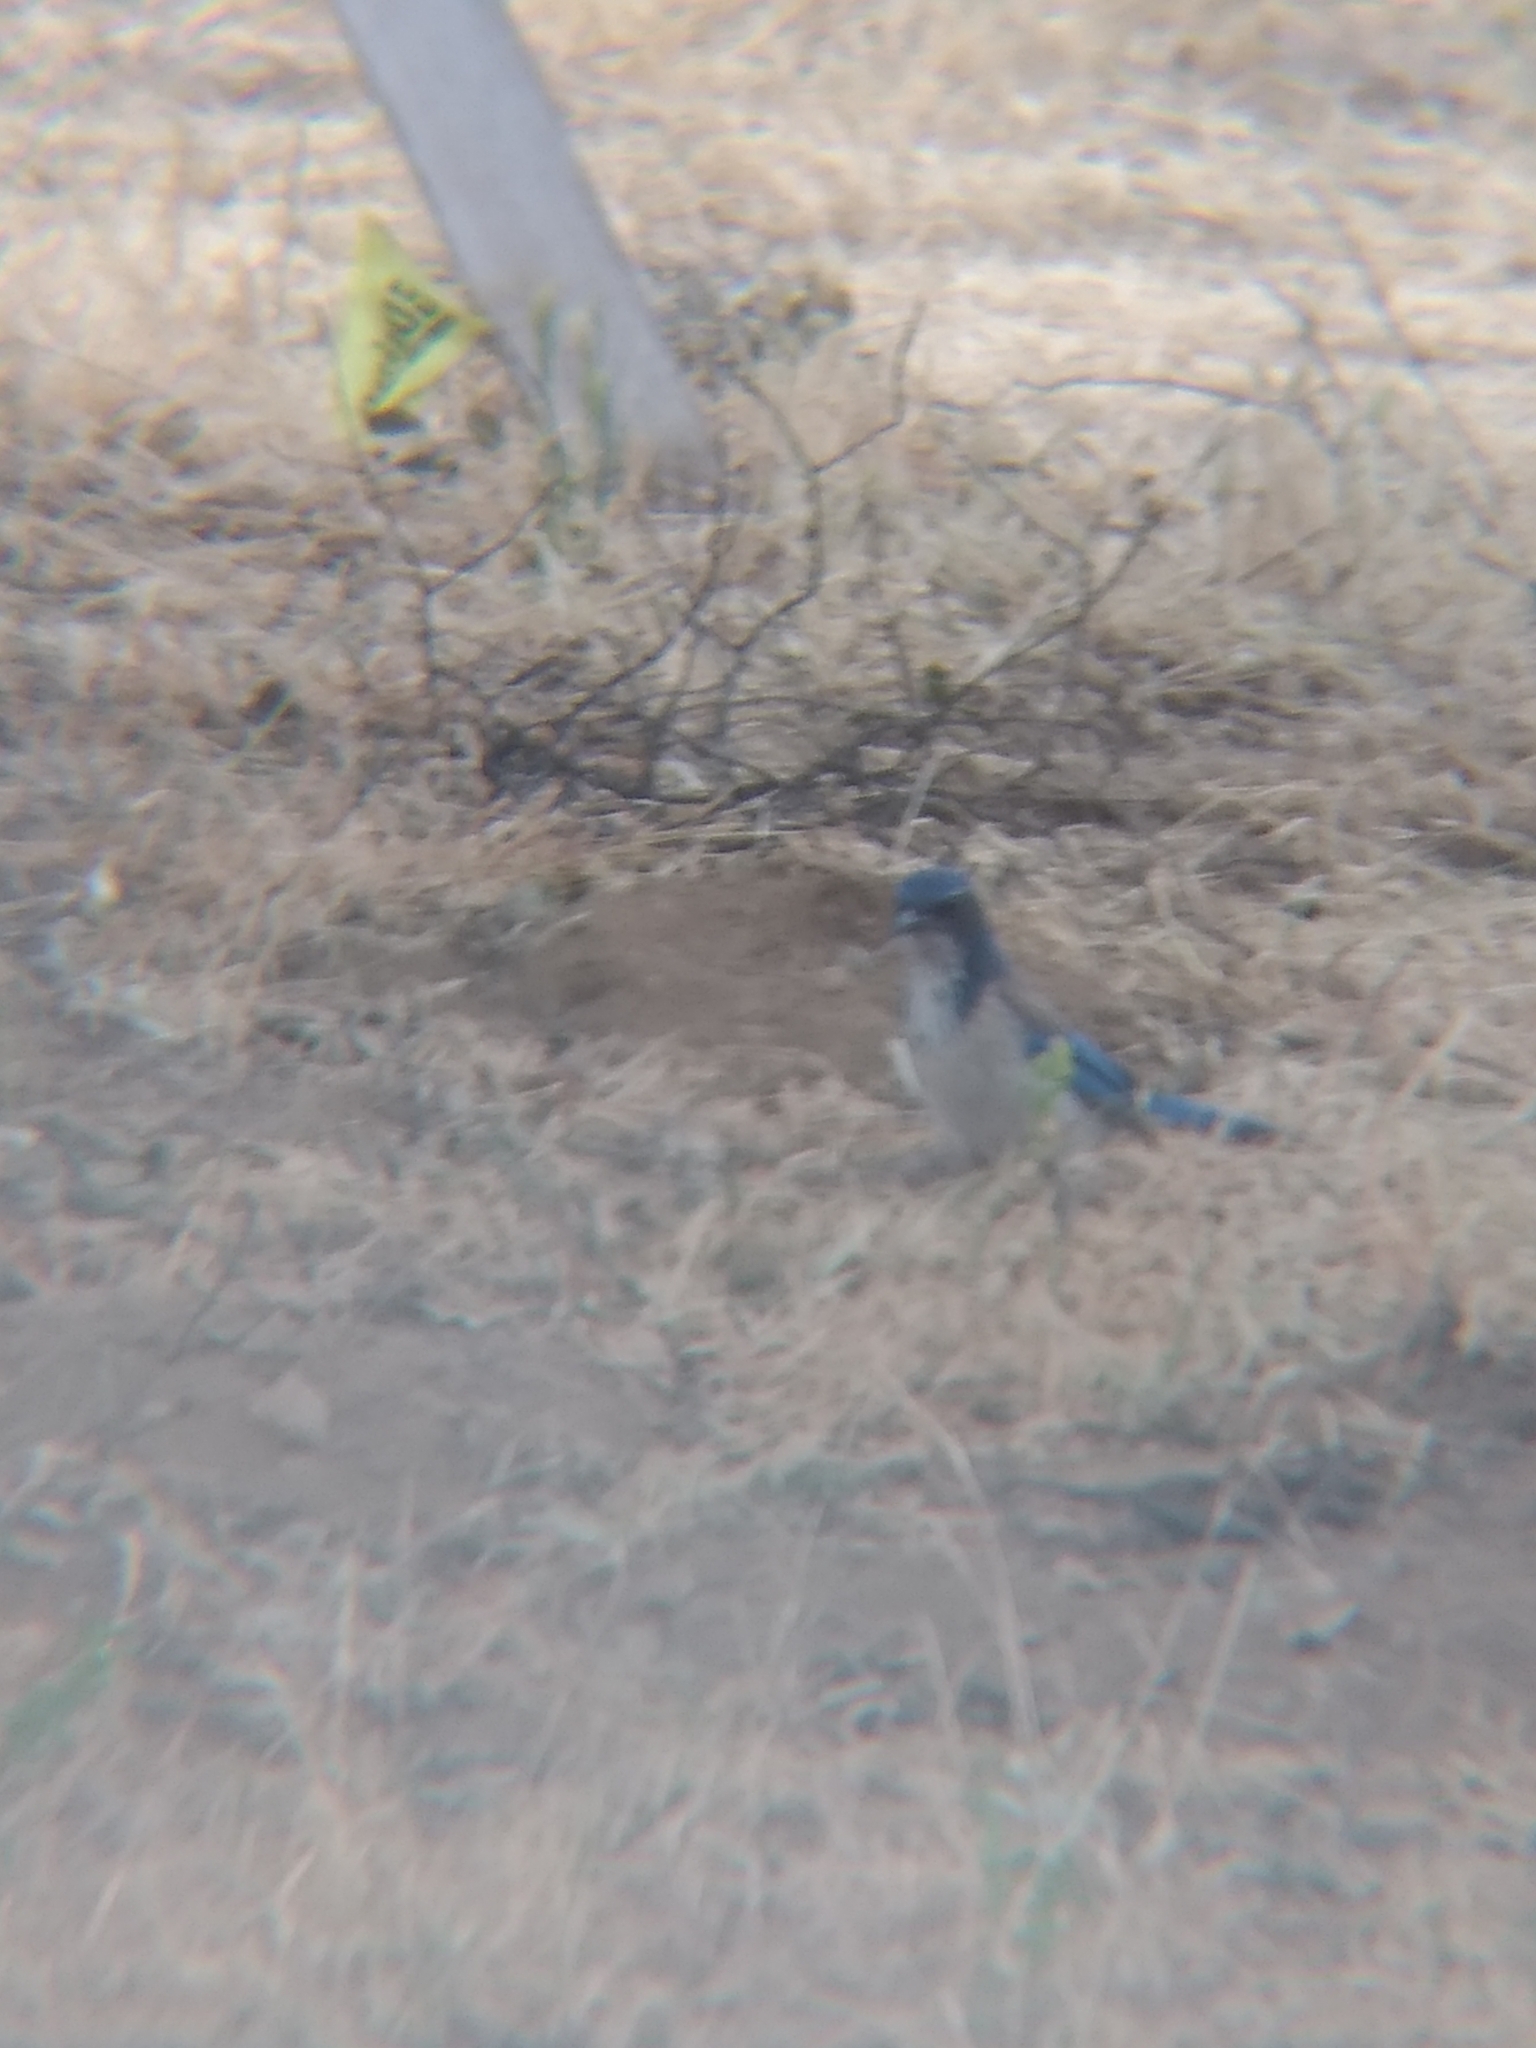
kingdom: Animalia
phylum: Chordata
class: Aves
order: Passeriformes
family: Corvidae
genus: Aphelocoma
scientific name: Aphelocoma californica
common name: California scrub-jay
